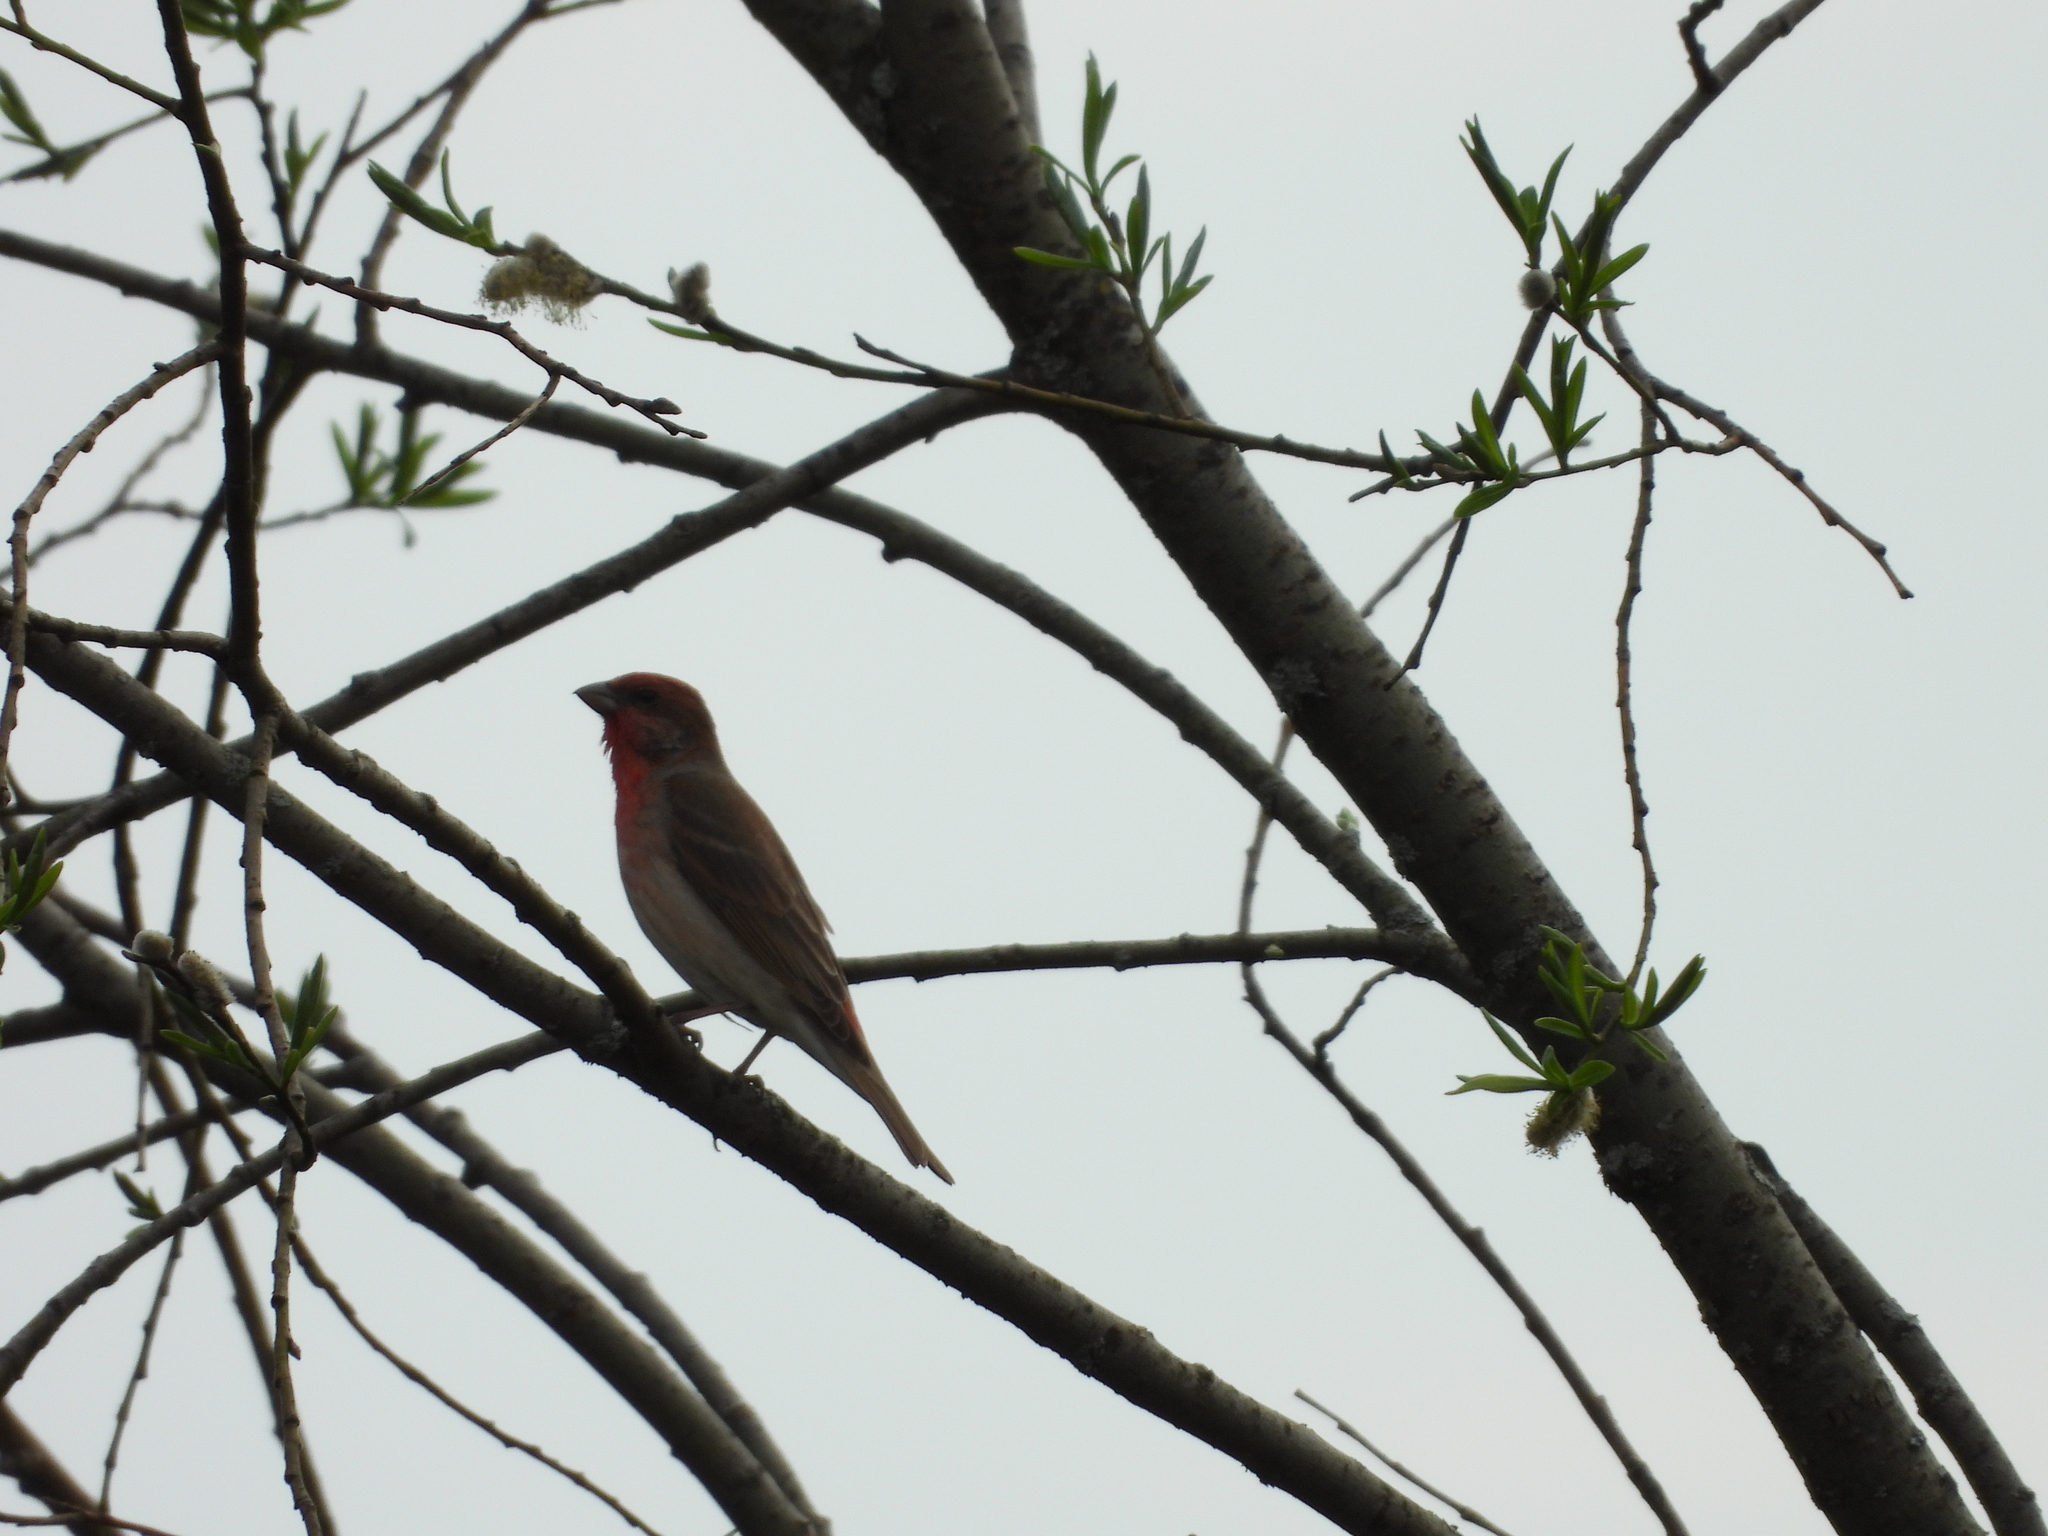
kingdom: Animalia
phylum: Chordata
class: Aves
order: Passeriformes
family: Fringillidae
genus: Carpodacus
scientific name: Carpodacus erythrinus
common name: Common rosefinch
